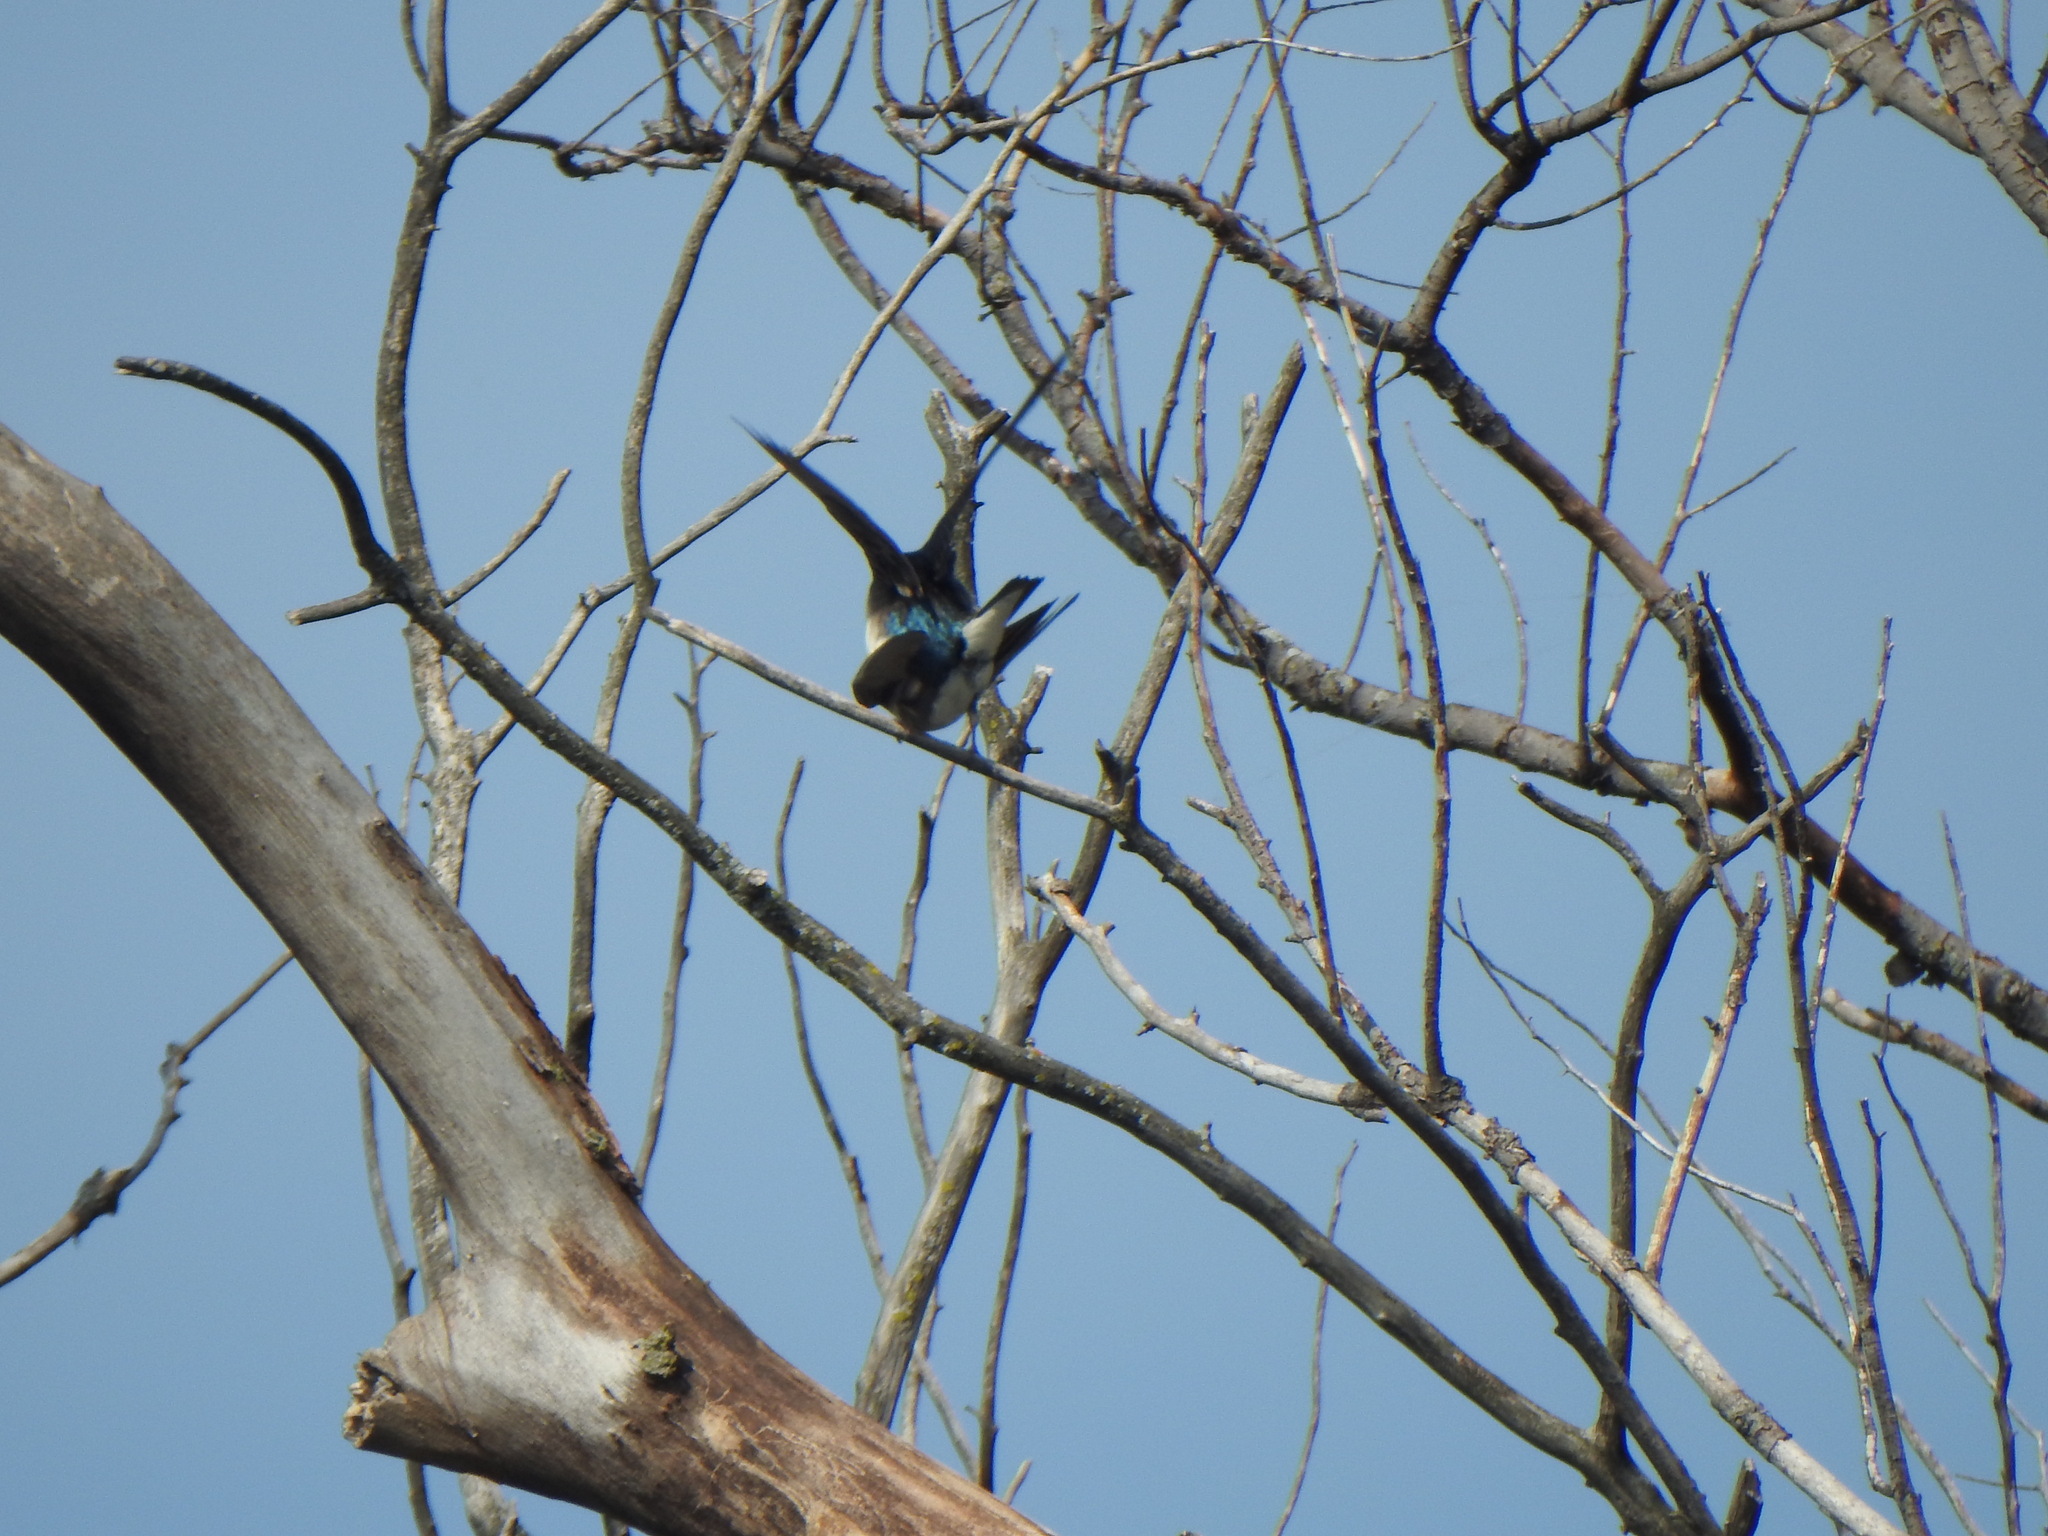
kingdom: Animalia
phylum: Chordata
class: Aves
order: Passeriformes
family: Hirundinidae
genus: Tachycineta
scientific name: Tachycineta bicolor
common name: Tree swallow
